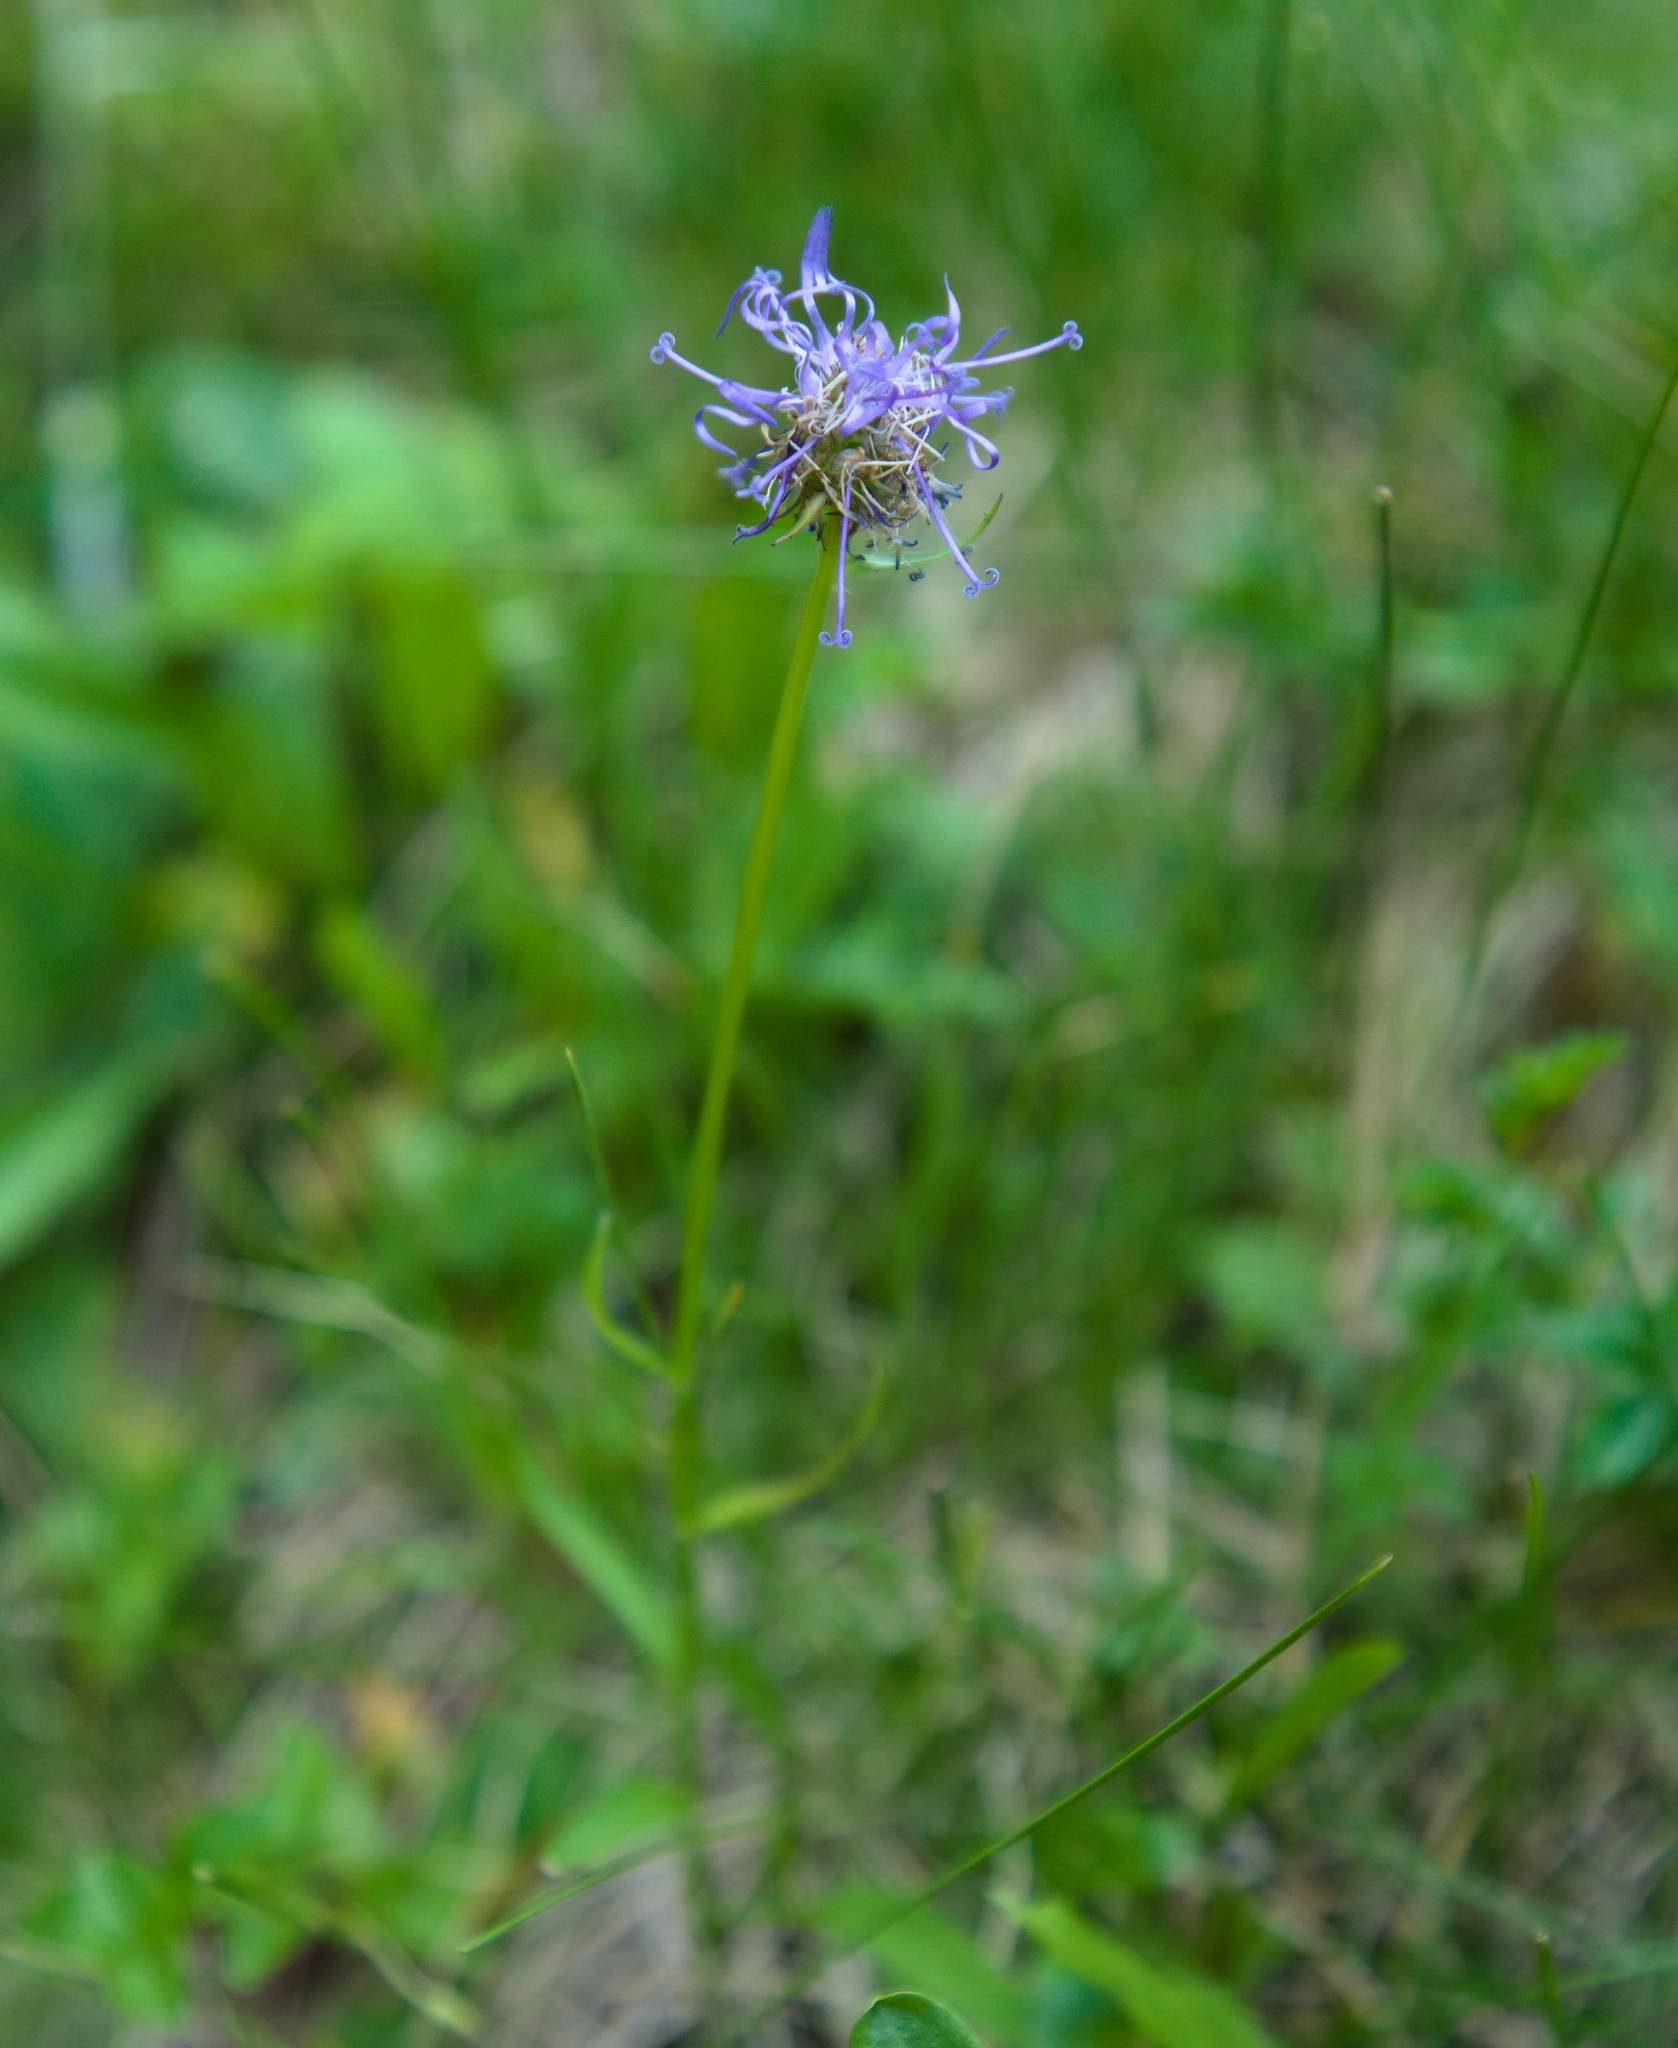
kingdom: Plantae
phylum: Tracheophyta
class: Magnoliopsida
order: Asterales
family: Campanulaceae
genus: Phyteuma
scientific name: Phyteuma orbiculare
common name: Round-headed rampion
